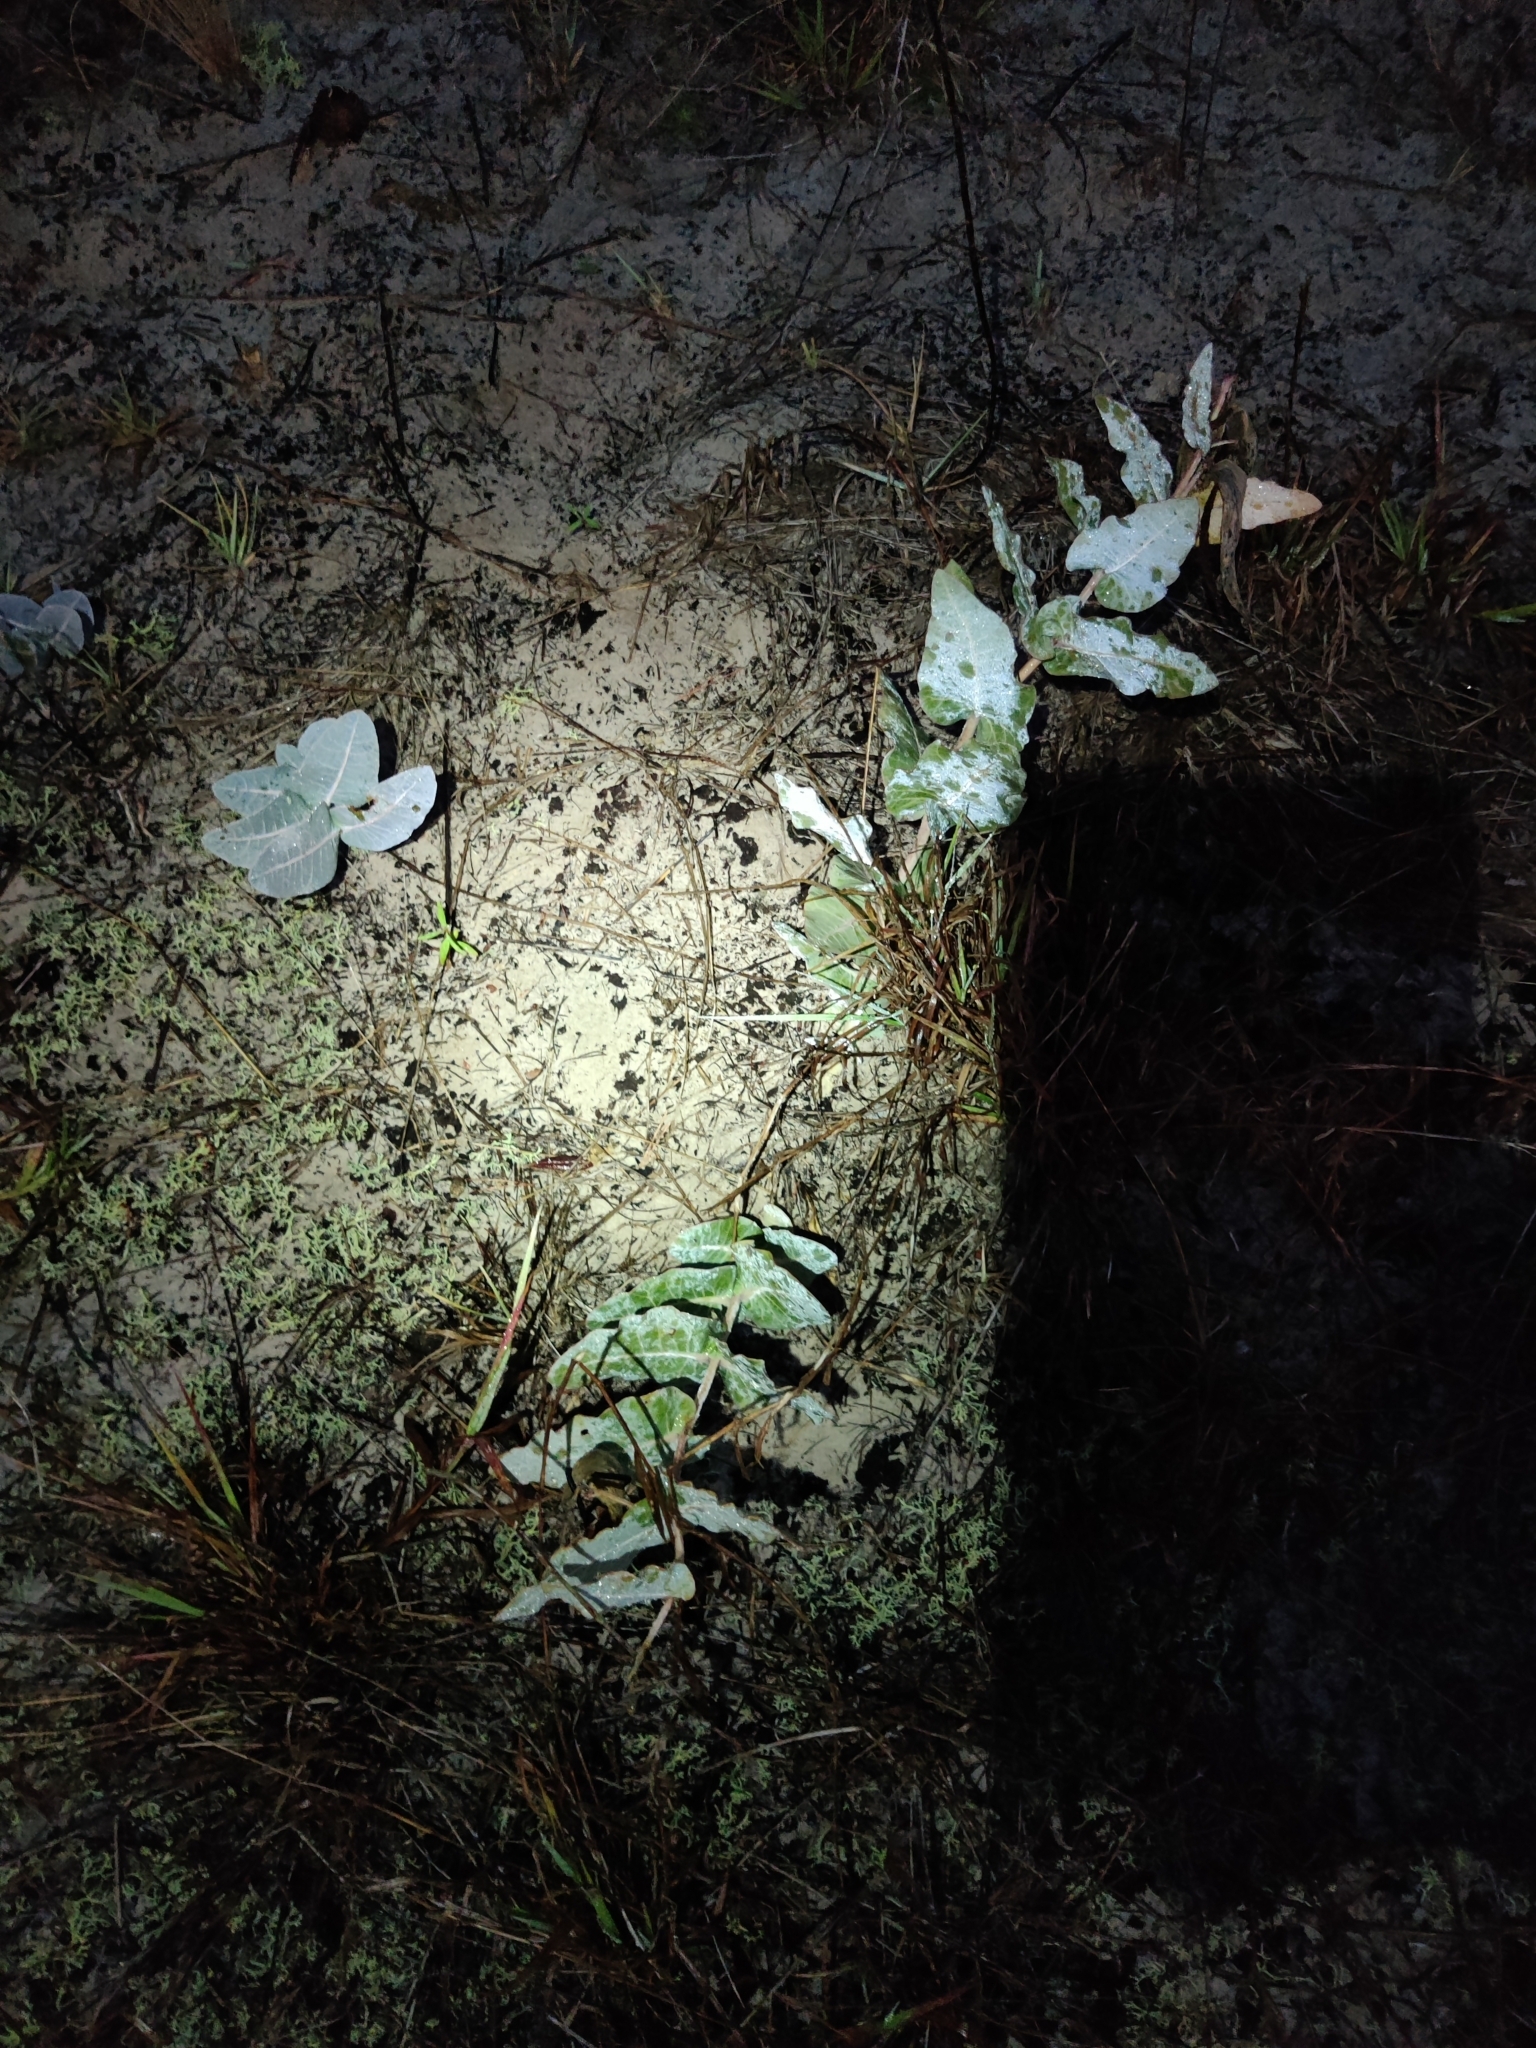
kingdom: Plantae
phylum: Tracheophyta
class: Magnoliopsida
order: Gentianales
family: Apocynaceae
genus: Asclepias
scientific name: Asclepias humistrata
